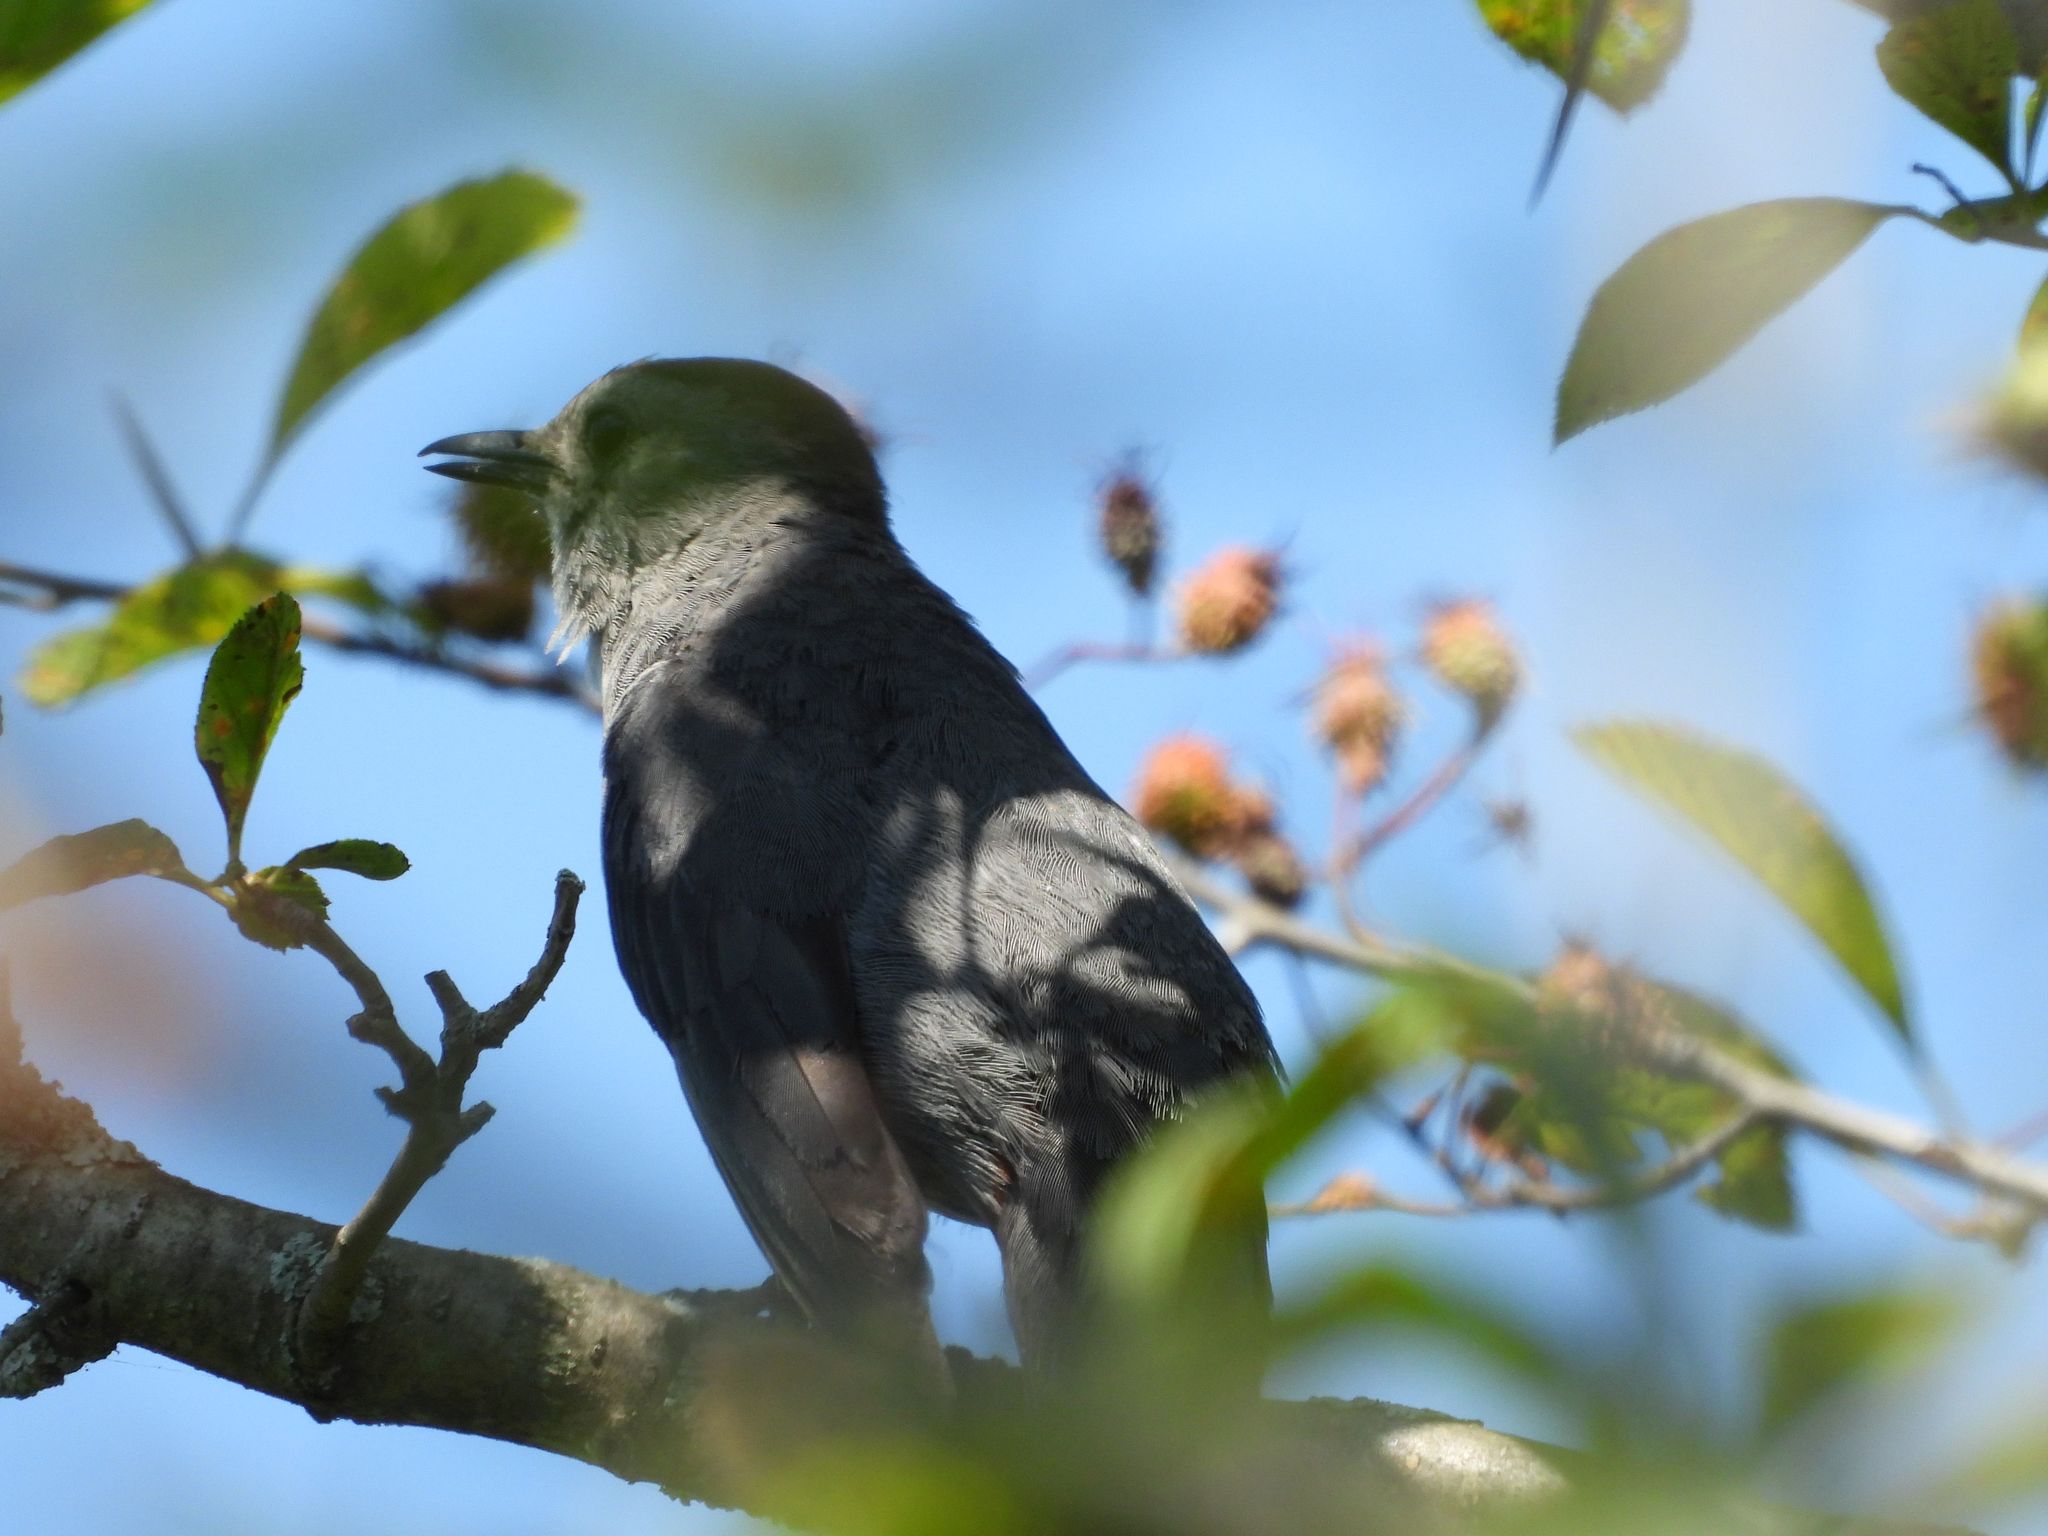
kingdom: Animalia
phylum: Chordata
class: Aves
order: Passeriformes
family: Mimidae
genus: Dumetella
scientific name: Dumetella carolinensis
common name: Gray catbird
